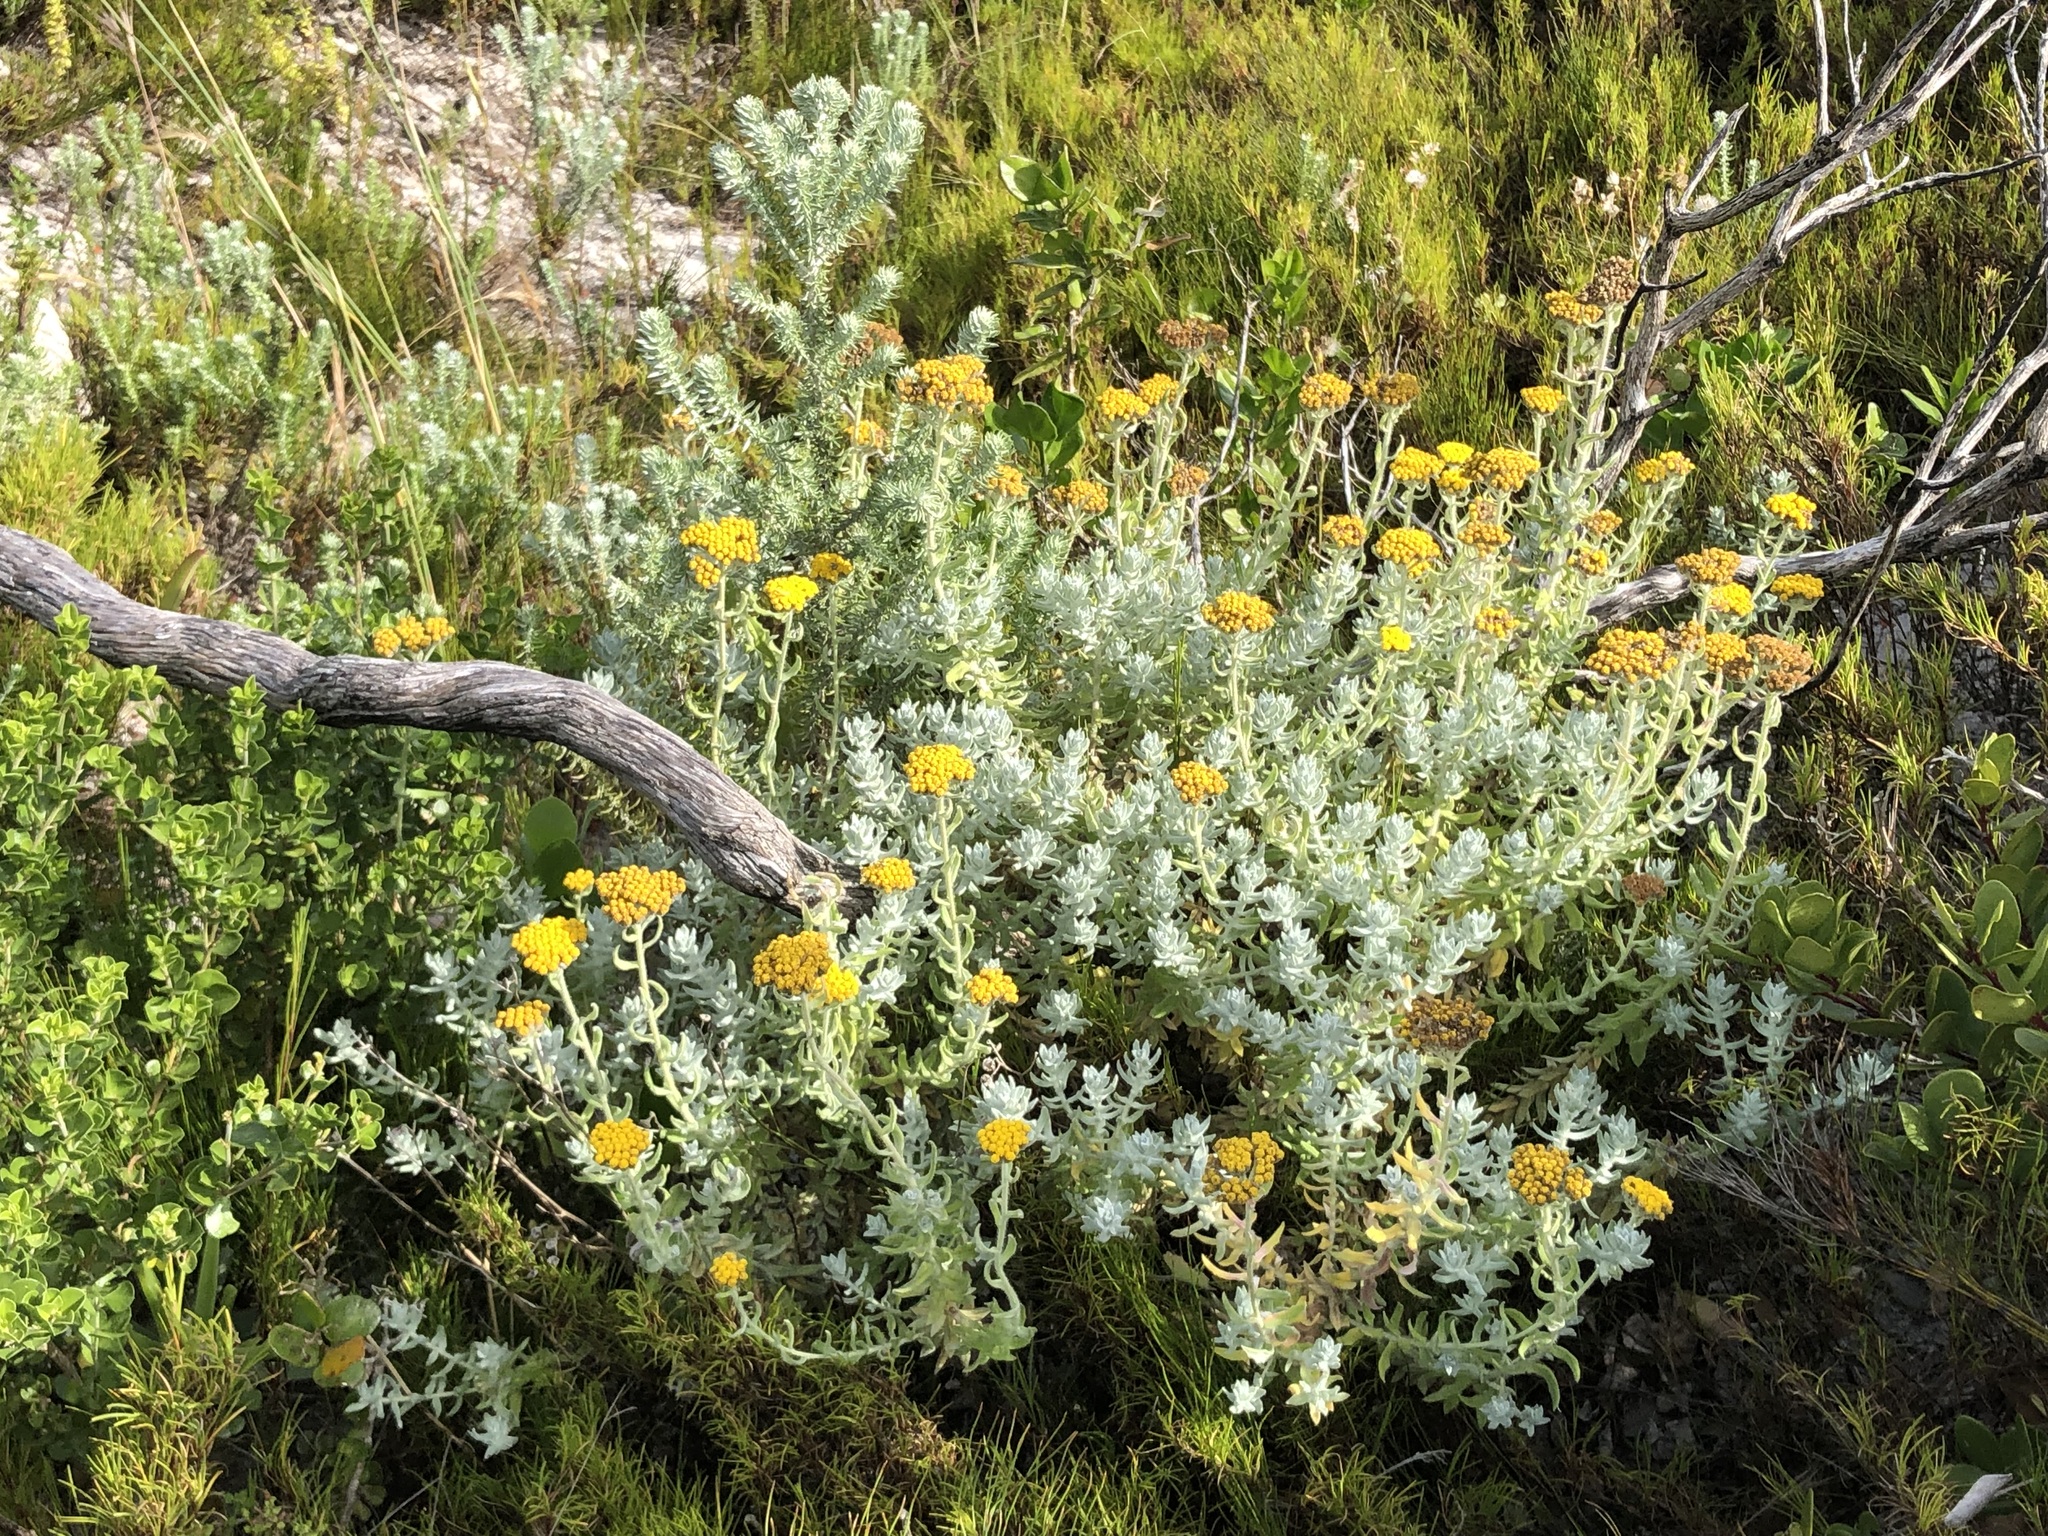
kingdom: Plantae
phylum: Tracheophyta
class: Magnoliopsida
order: Asterales
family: Asteraceae
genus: Helichrysum
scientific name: Helichrysum dasyanthum
